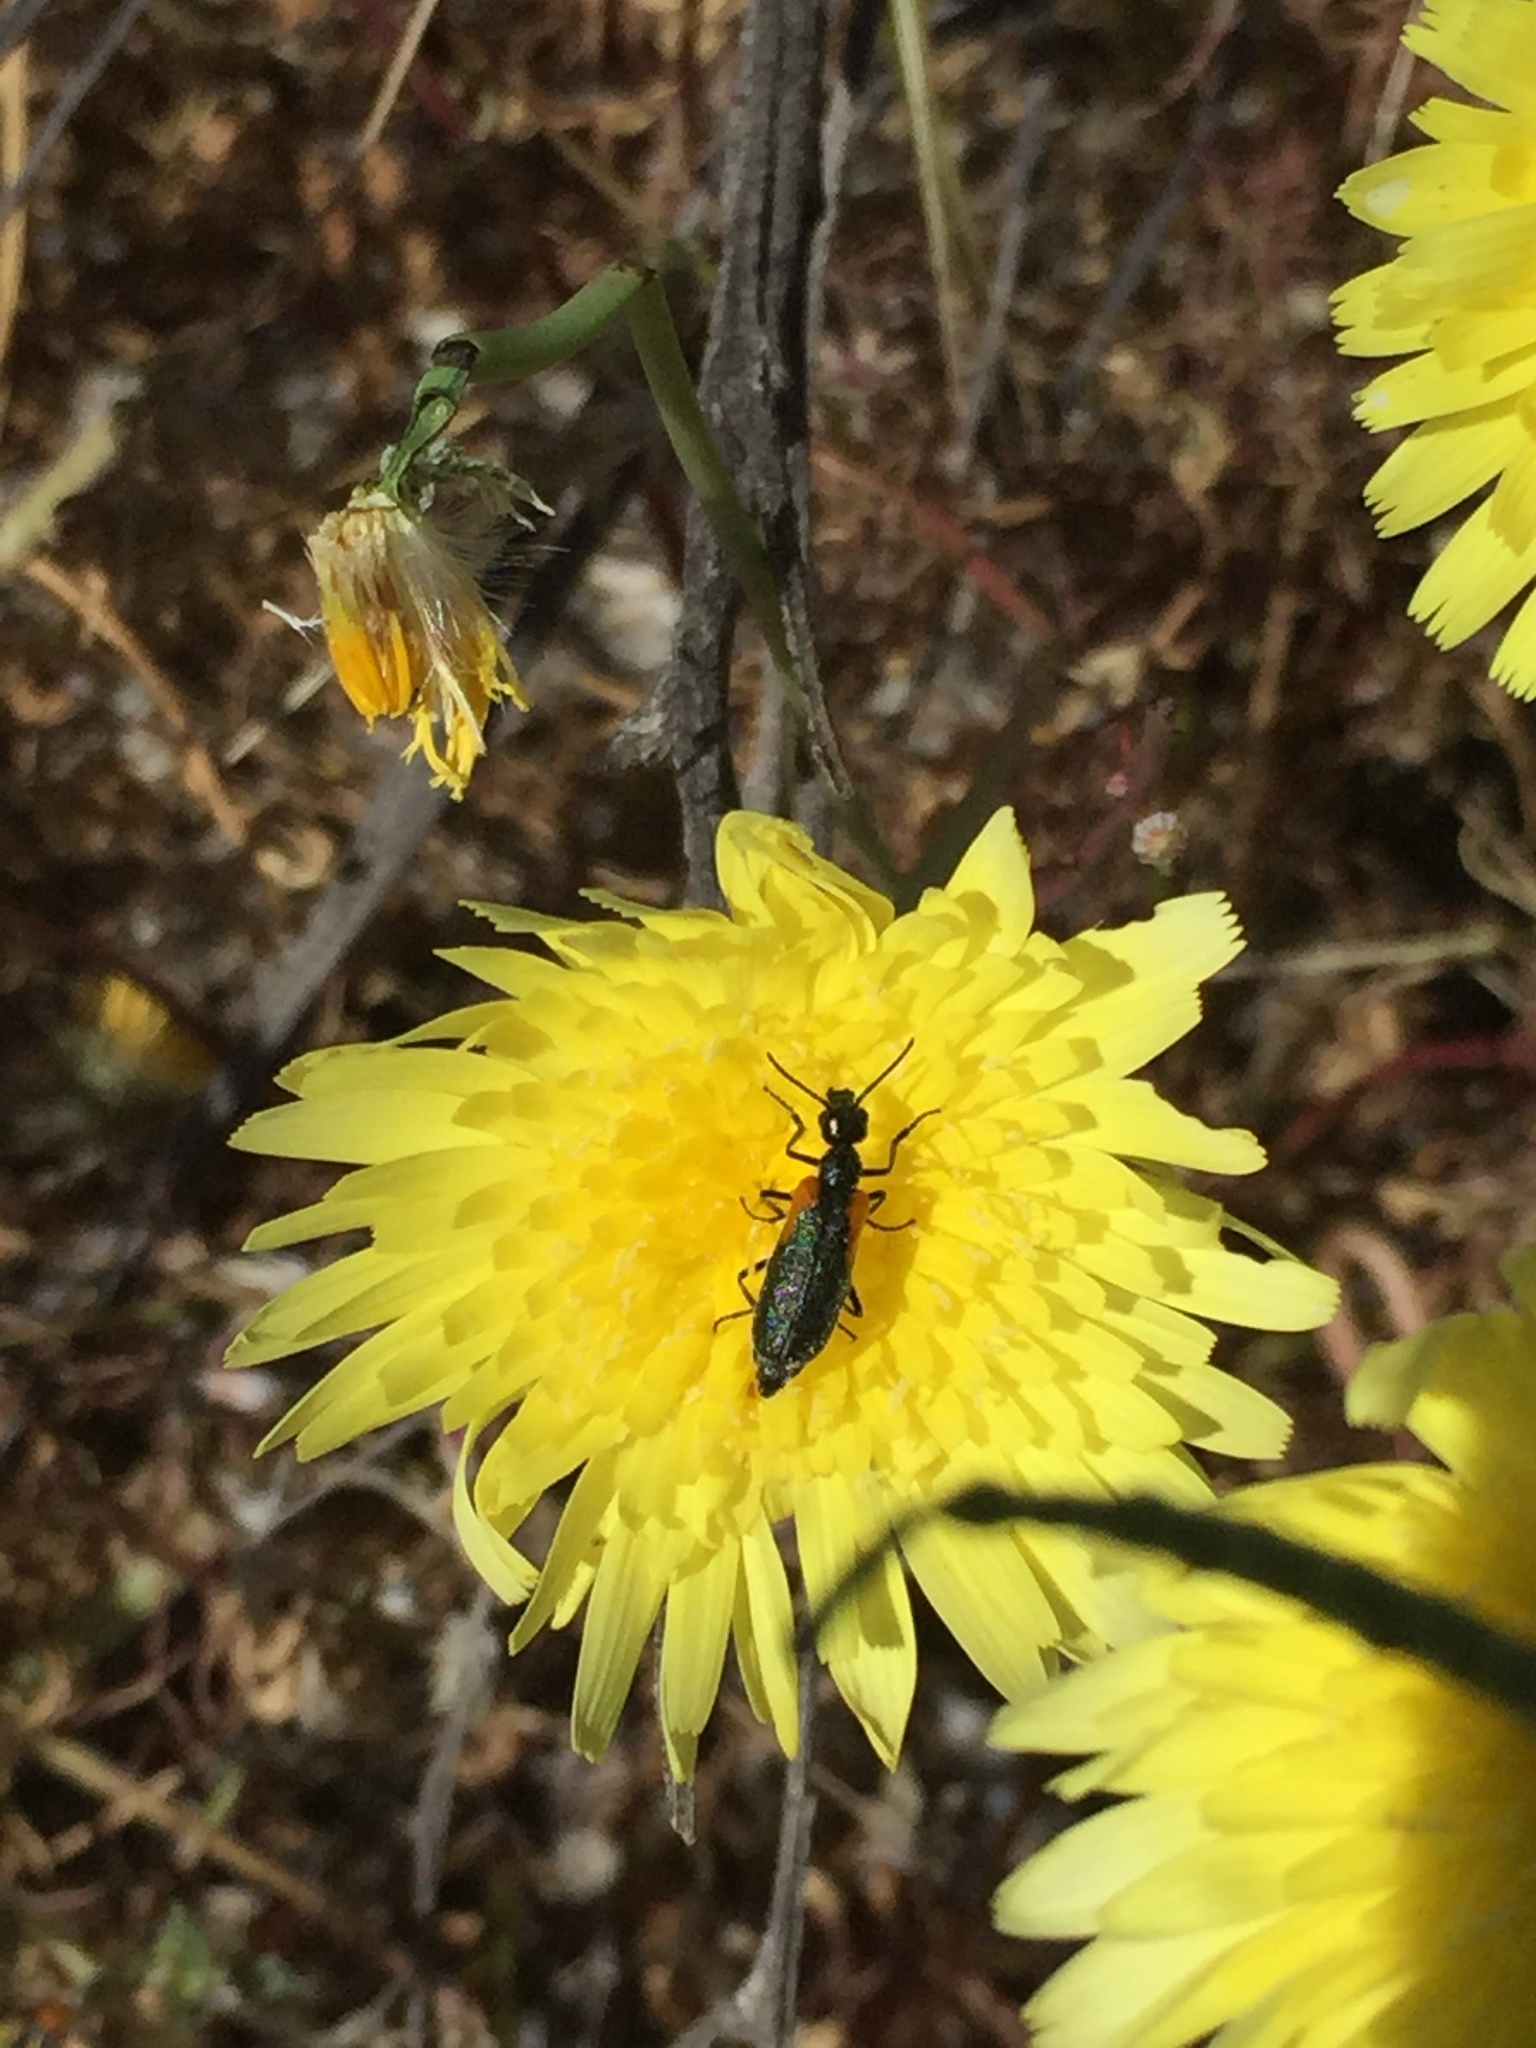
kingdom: Animalia
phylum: Arthropoda
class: Insecta
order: Coleoptera
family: Meloidae
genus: Eupompha
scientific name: Eupompha elegans
